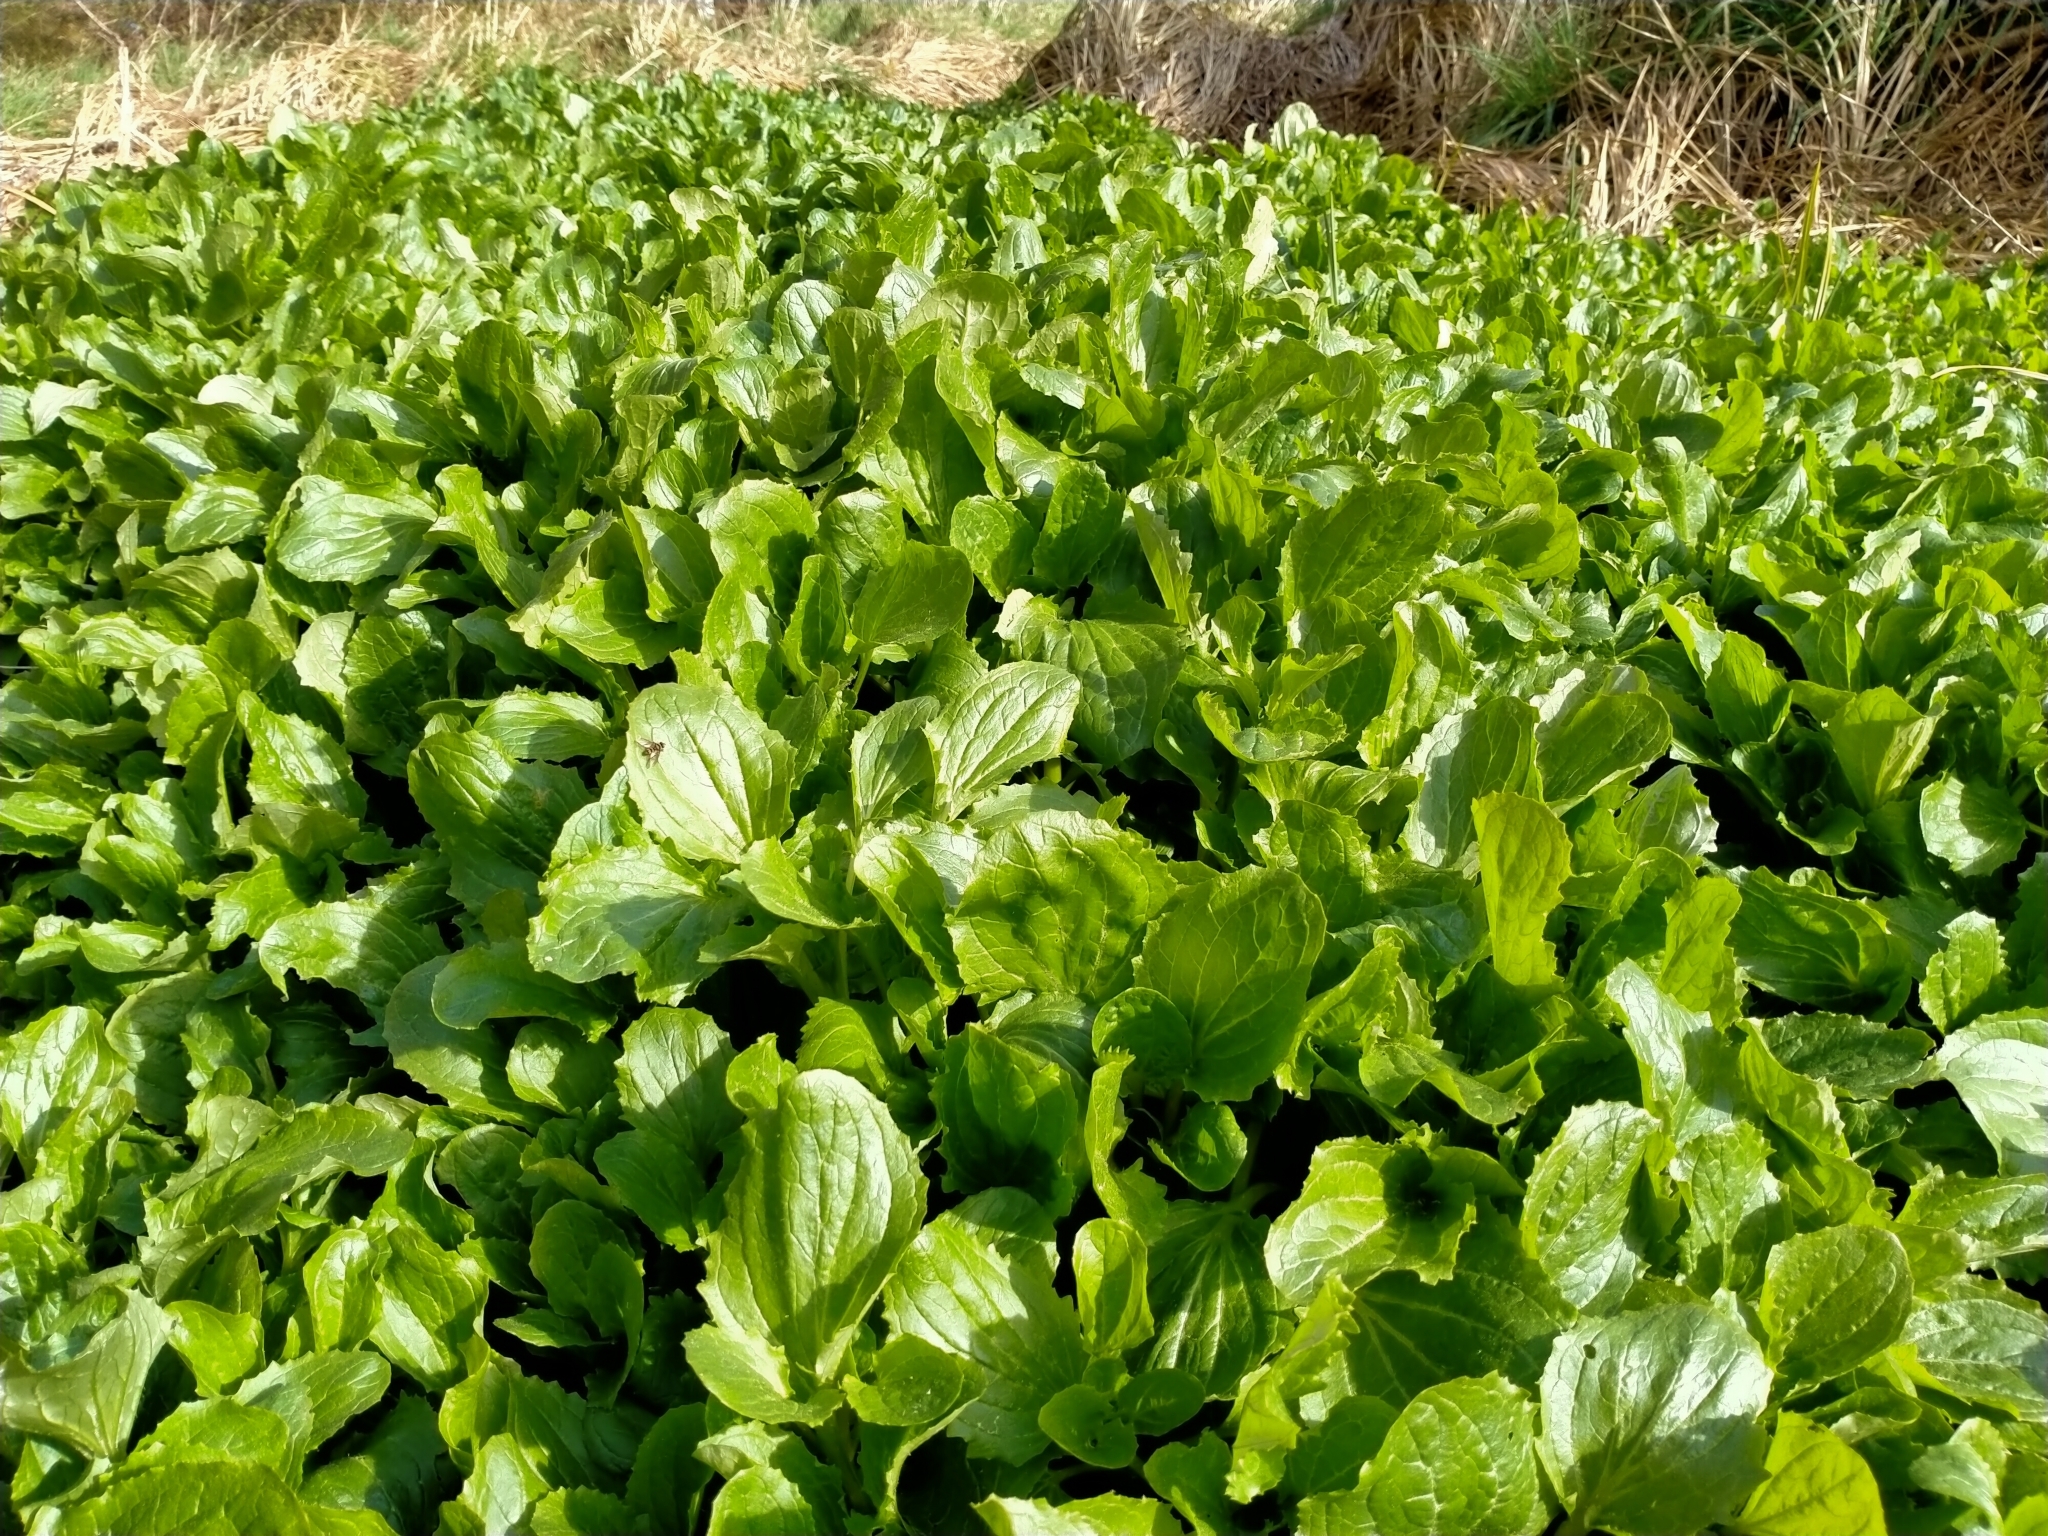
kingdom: Plantae
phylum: Tracheophyta
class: Magnoliopsida
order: Lamiales
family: Phrymaceae
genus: Erythranthe
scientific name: Erythranthe guttata
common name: Monkeyflower
